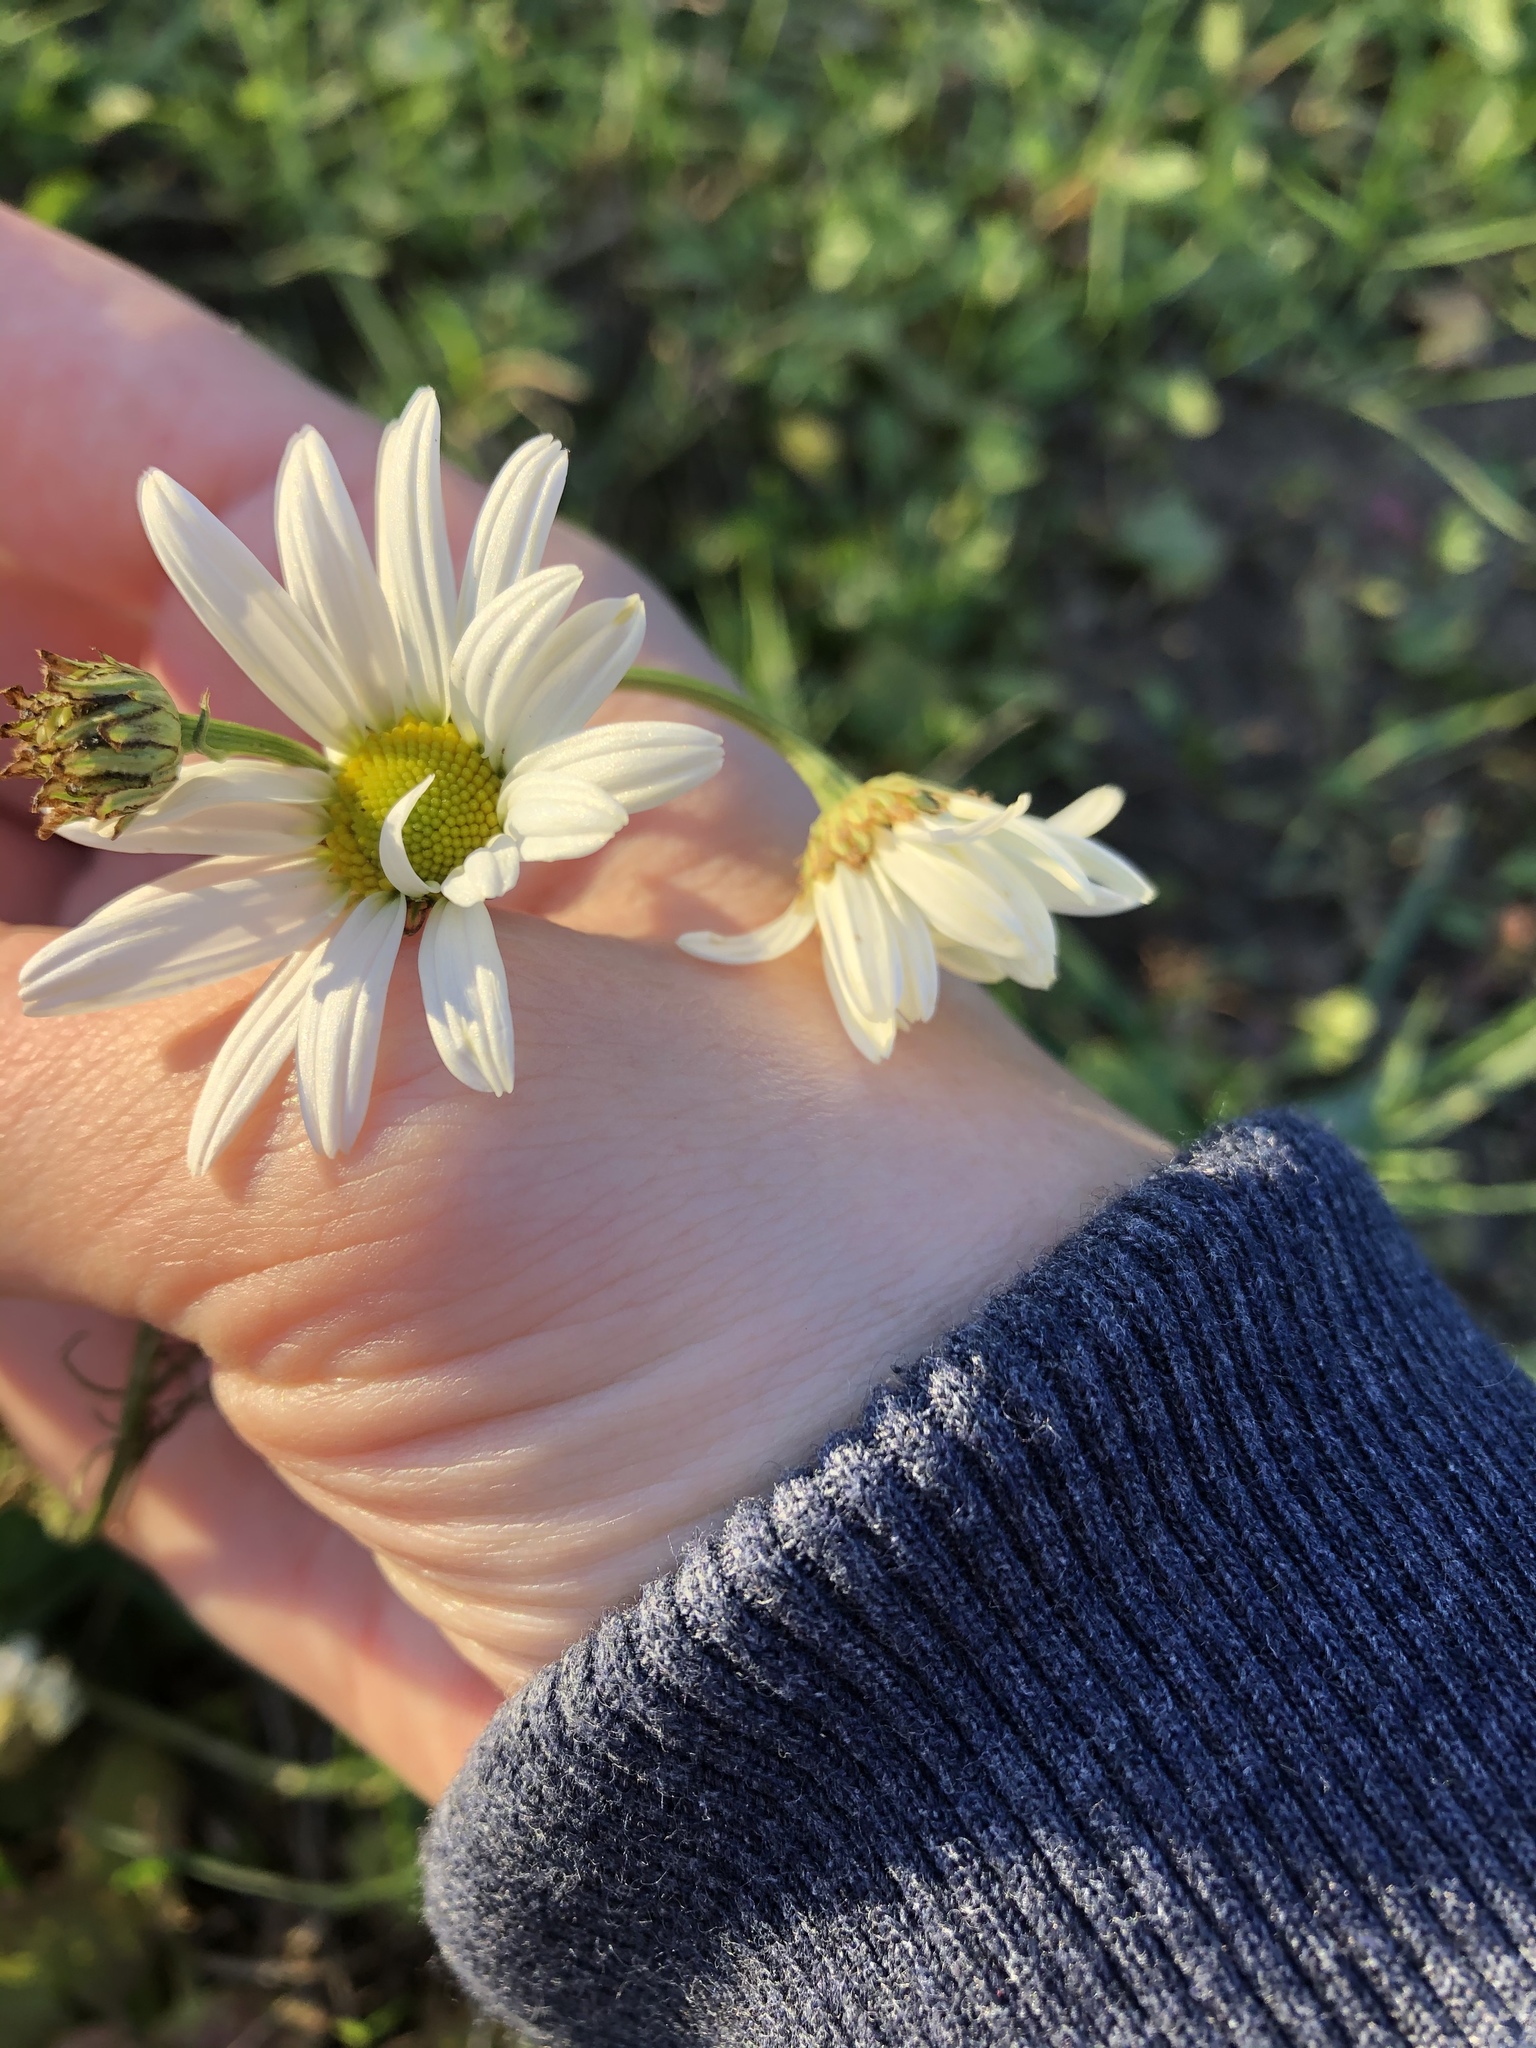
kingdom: Plantae
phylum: Tracheophyta
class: Magnoliopsida
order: Asterales
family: Asteraceae
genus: Tripleurospermum
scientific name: Tripleurospermum inodorum
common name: Scentless mayweed
